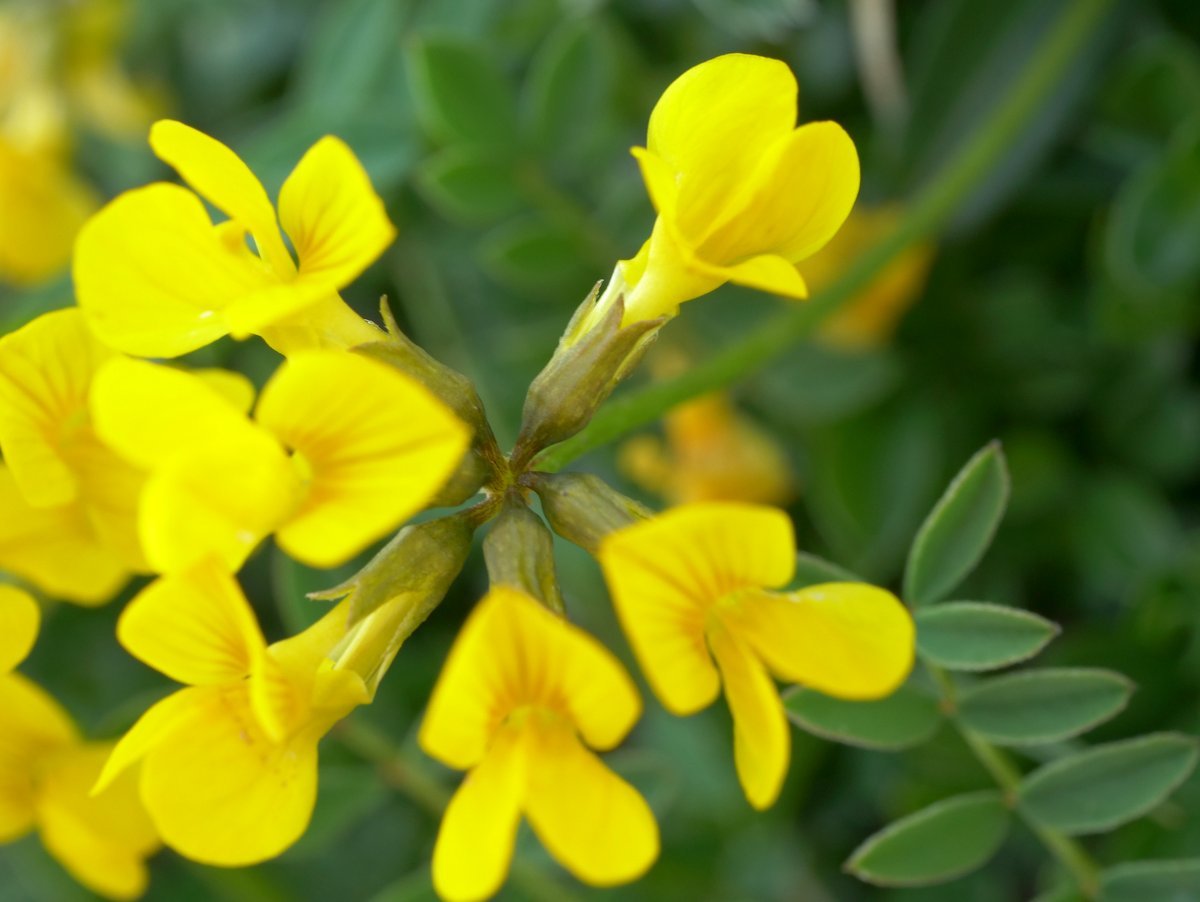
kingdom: Plantae
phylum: Tracheophyta
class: Magnoliopsida
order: Fabales
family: Fabaceae
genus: Hippocrepis
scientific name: Hippocrepis comosa
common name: Horseshoe vetch
